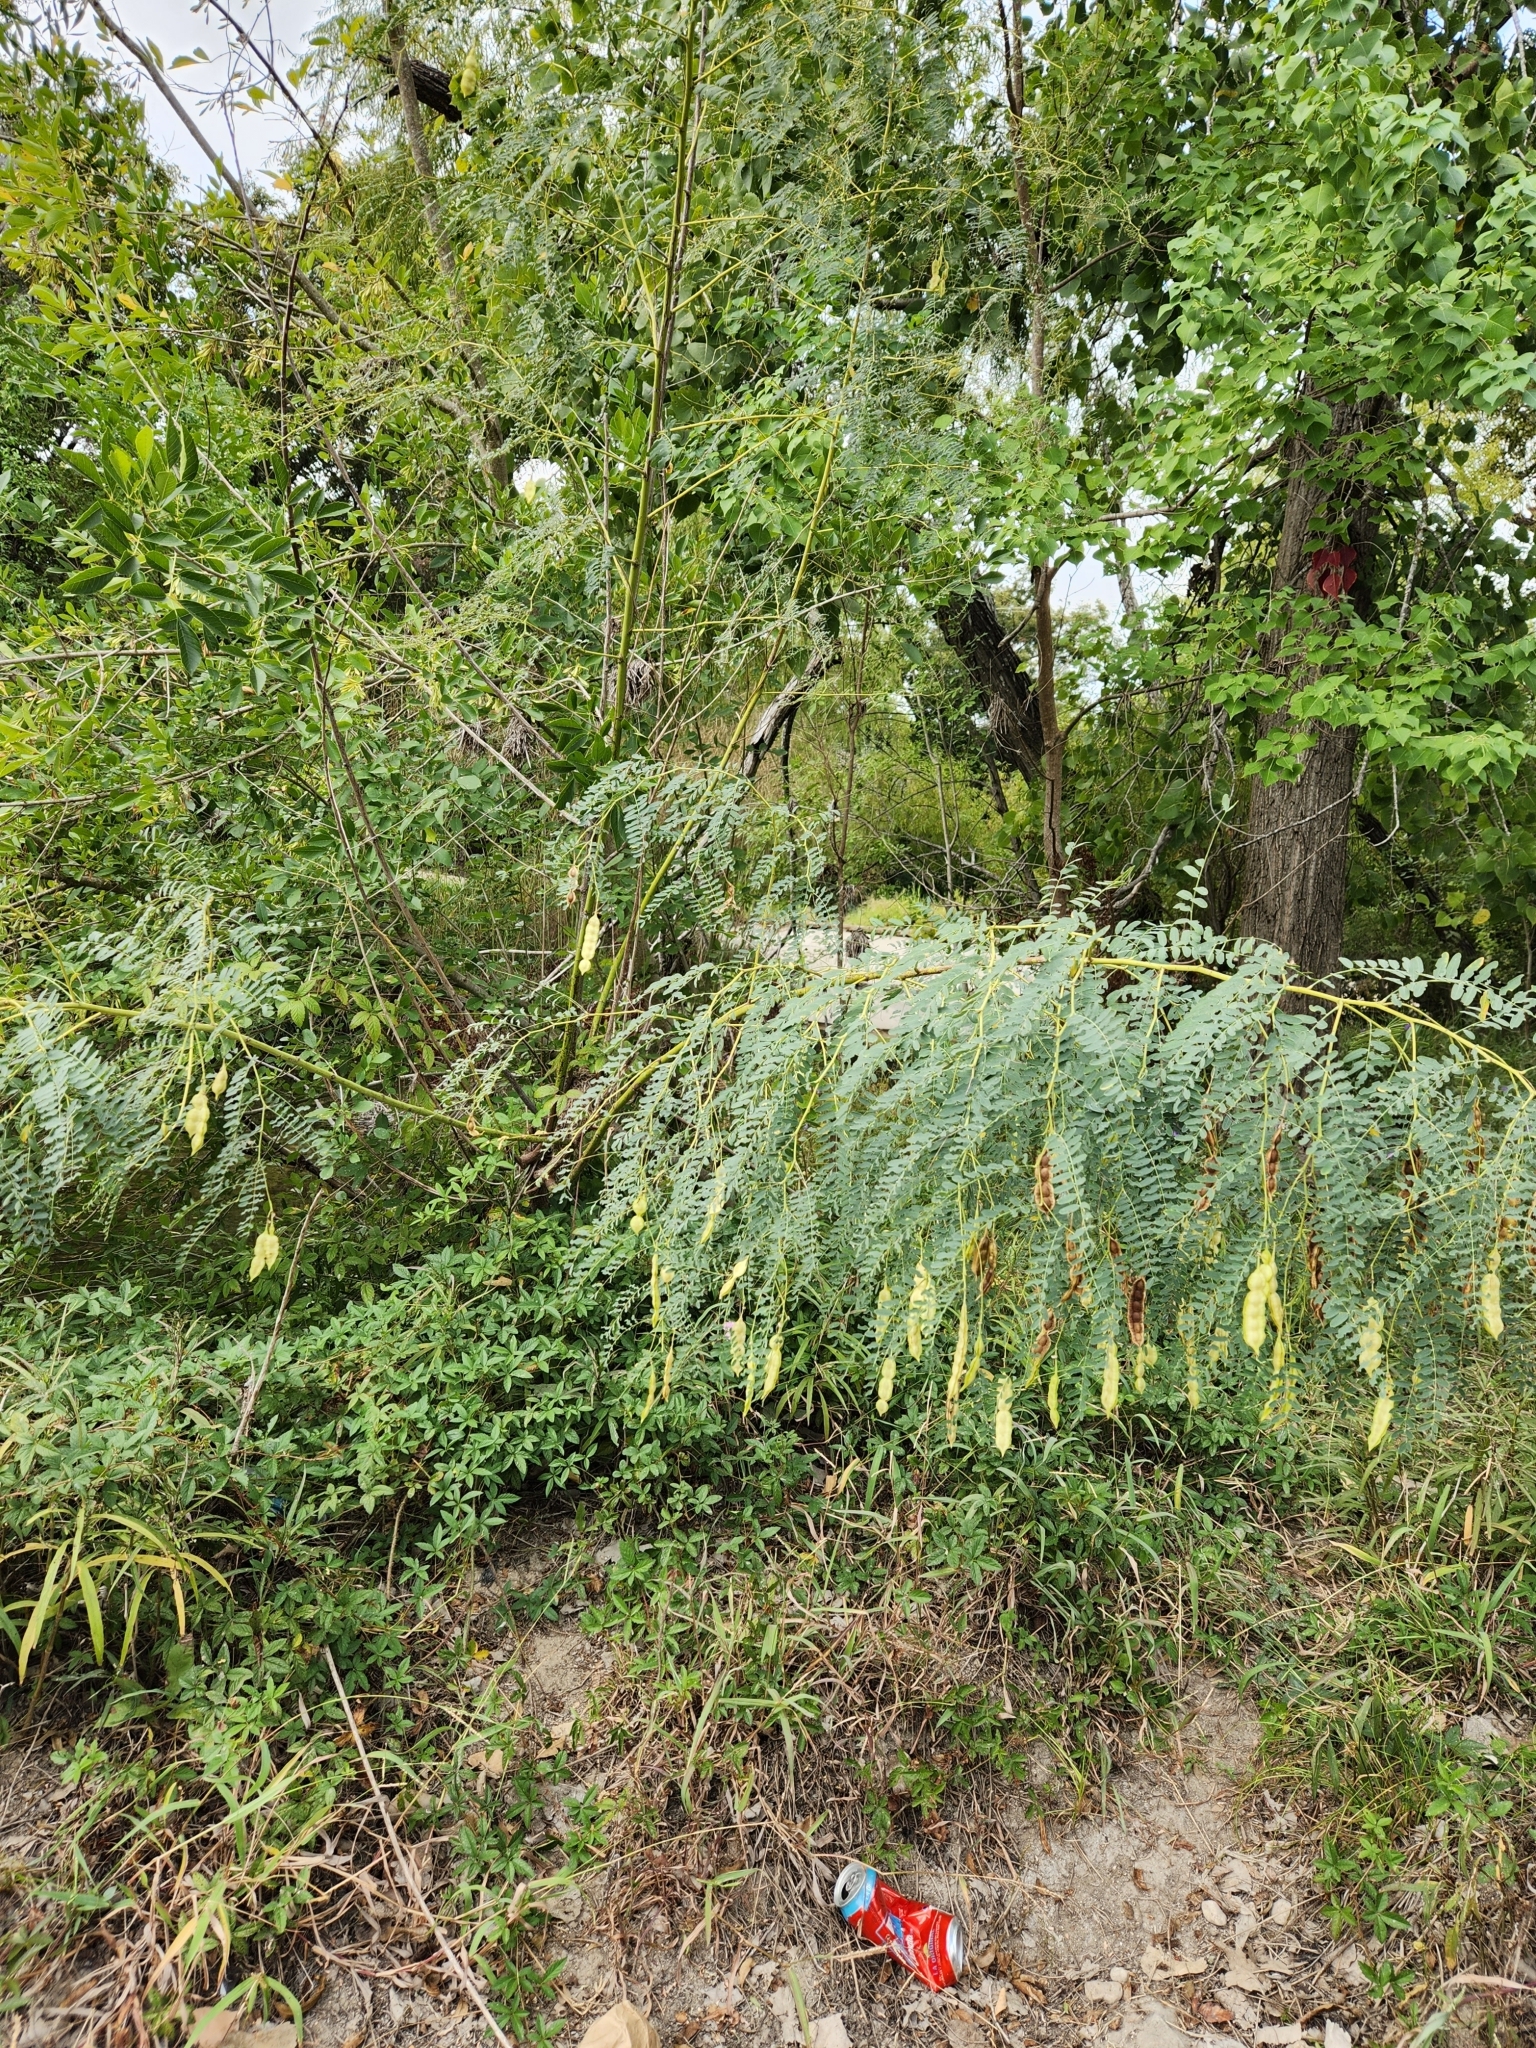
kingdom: Plantae
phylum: Tracheophyta
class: Magnoliopsida
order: Fabales
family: Fabaceae
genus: Sesbania
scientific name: Sesbania drummondii
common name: Poison-bean
